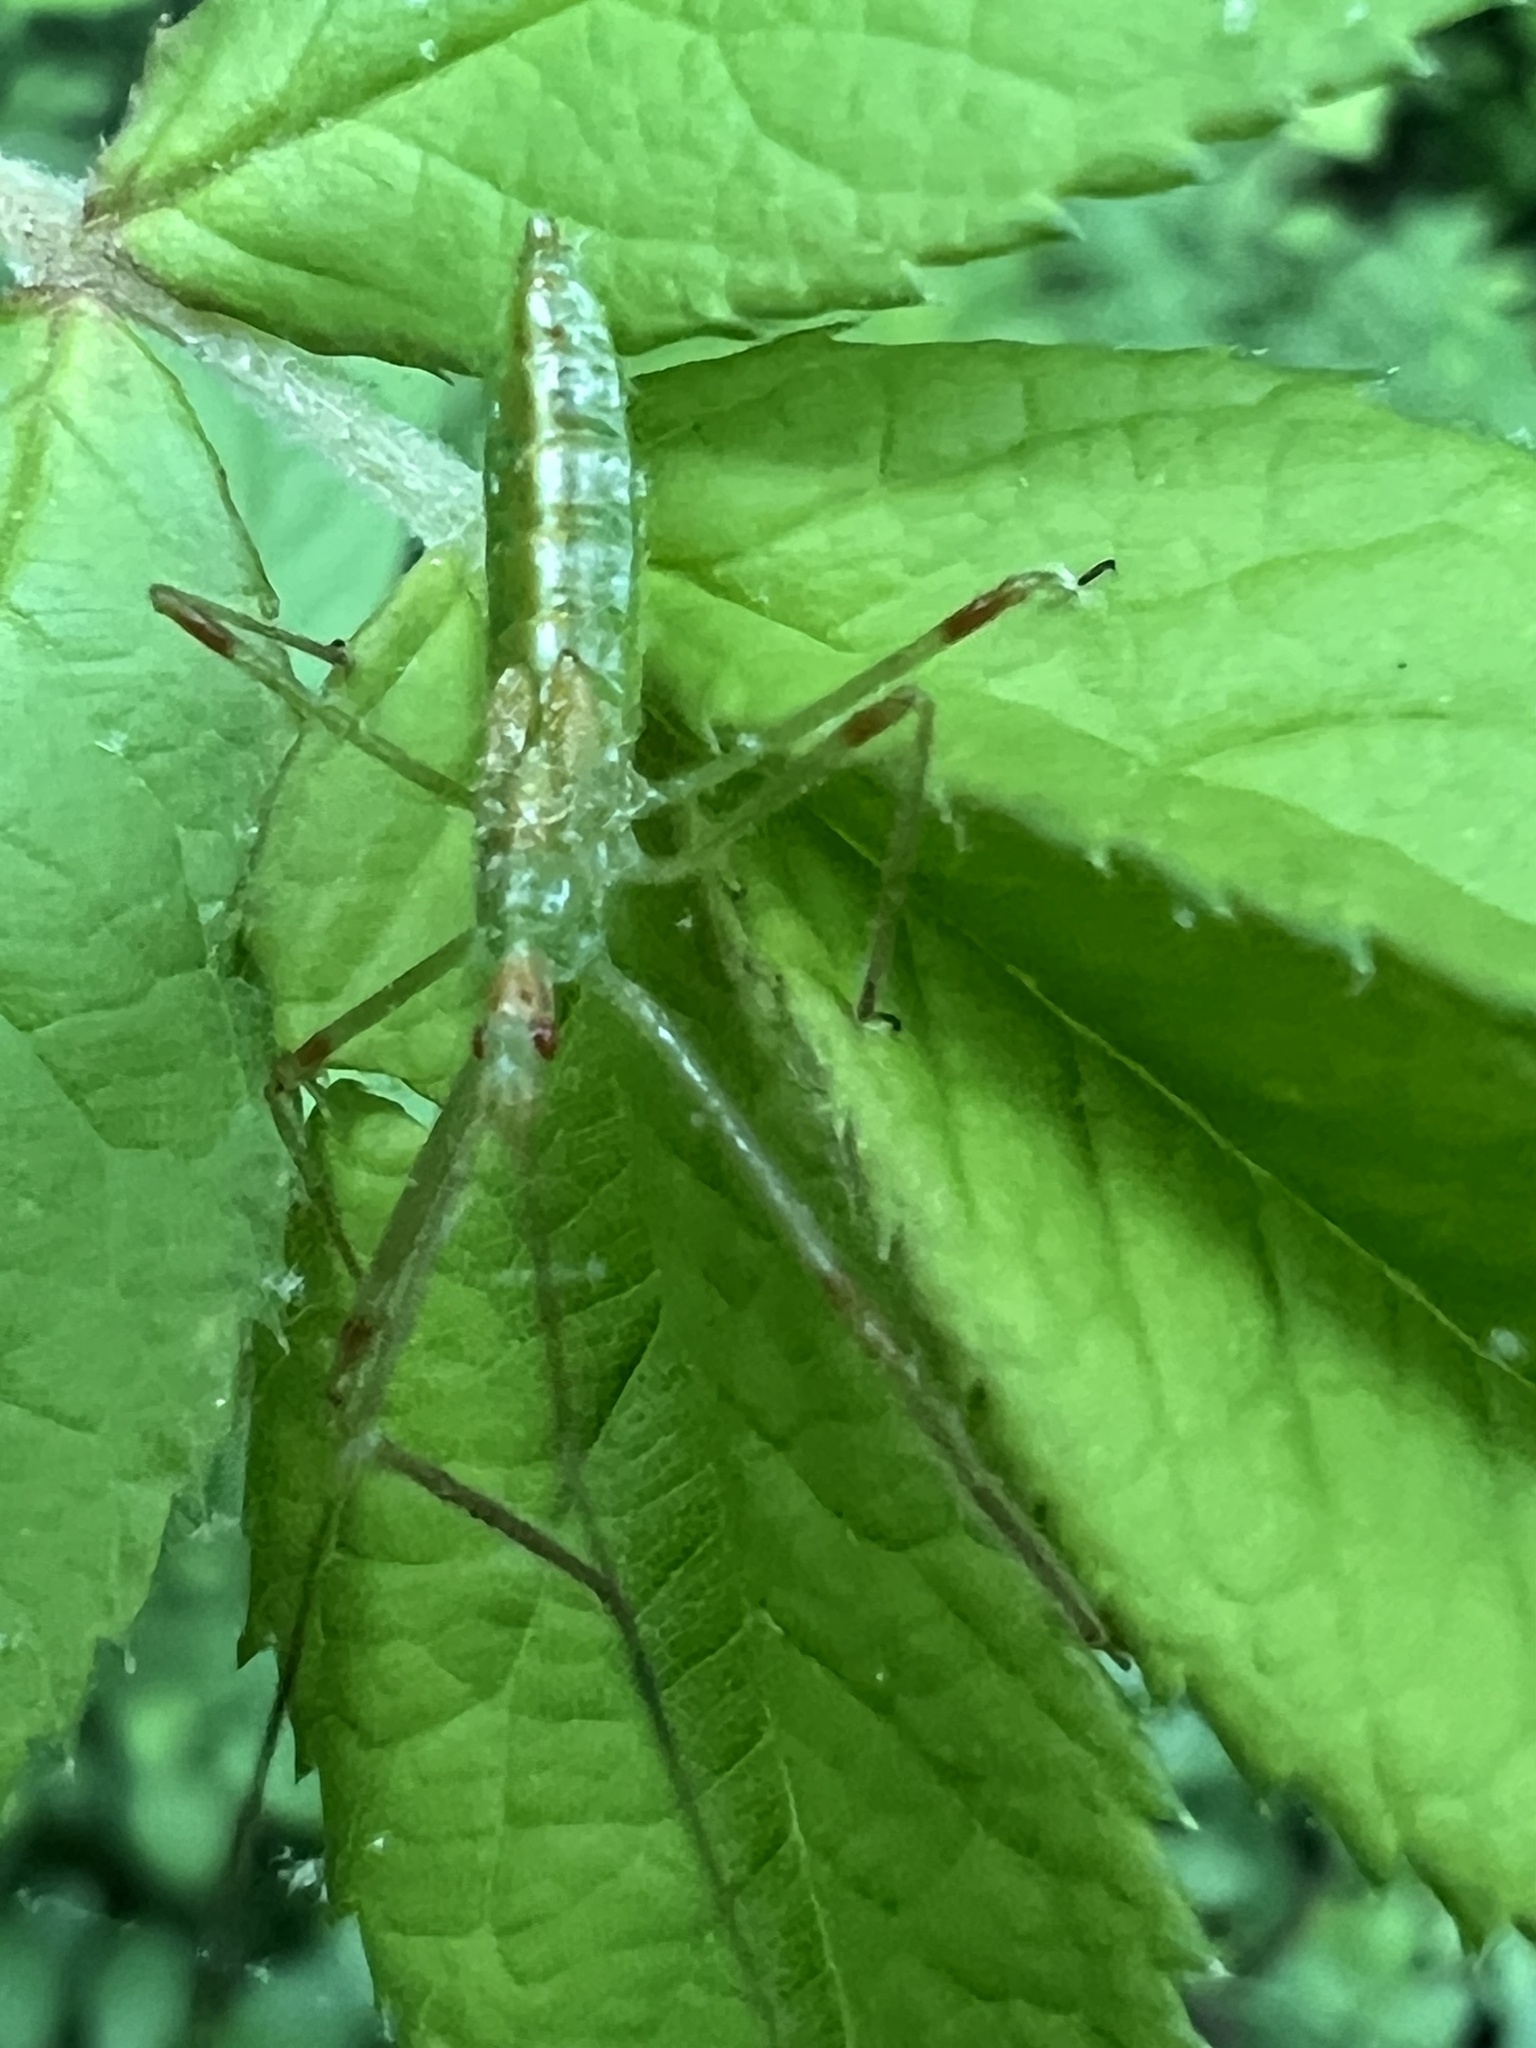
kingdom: Animalia
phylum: Arthropoda
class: Insecta
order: Hemiptera
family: Reduviidae
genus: Zelus
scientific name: Zelus luridus
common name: Pale green assassin bug
